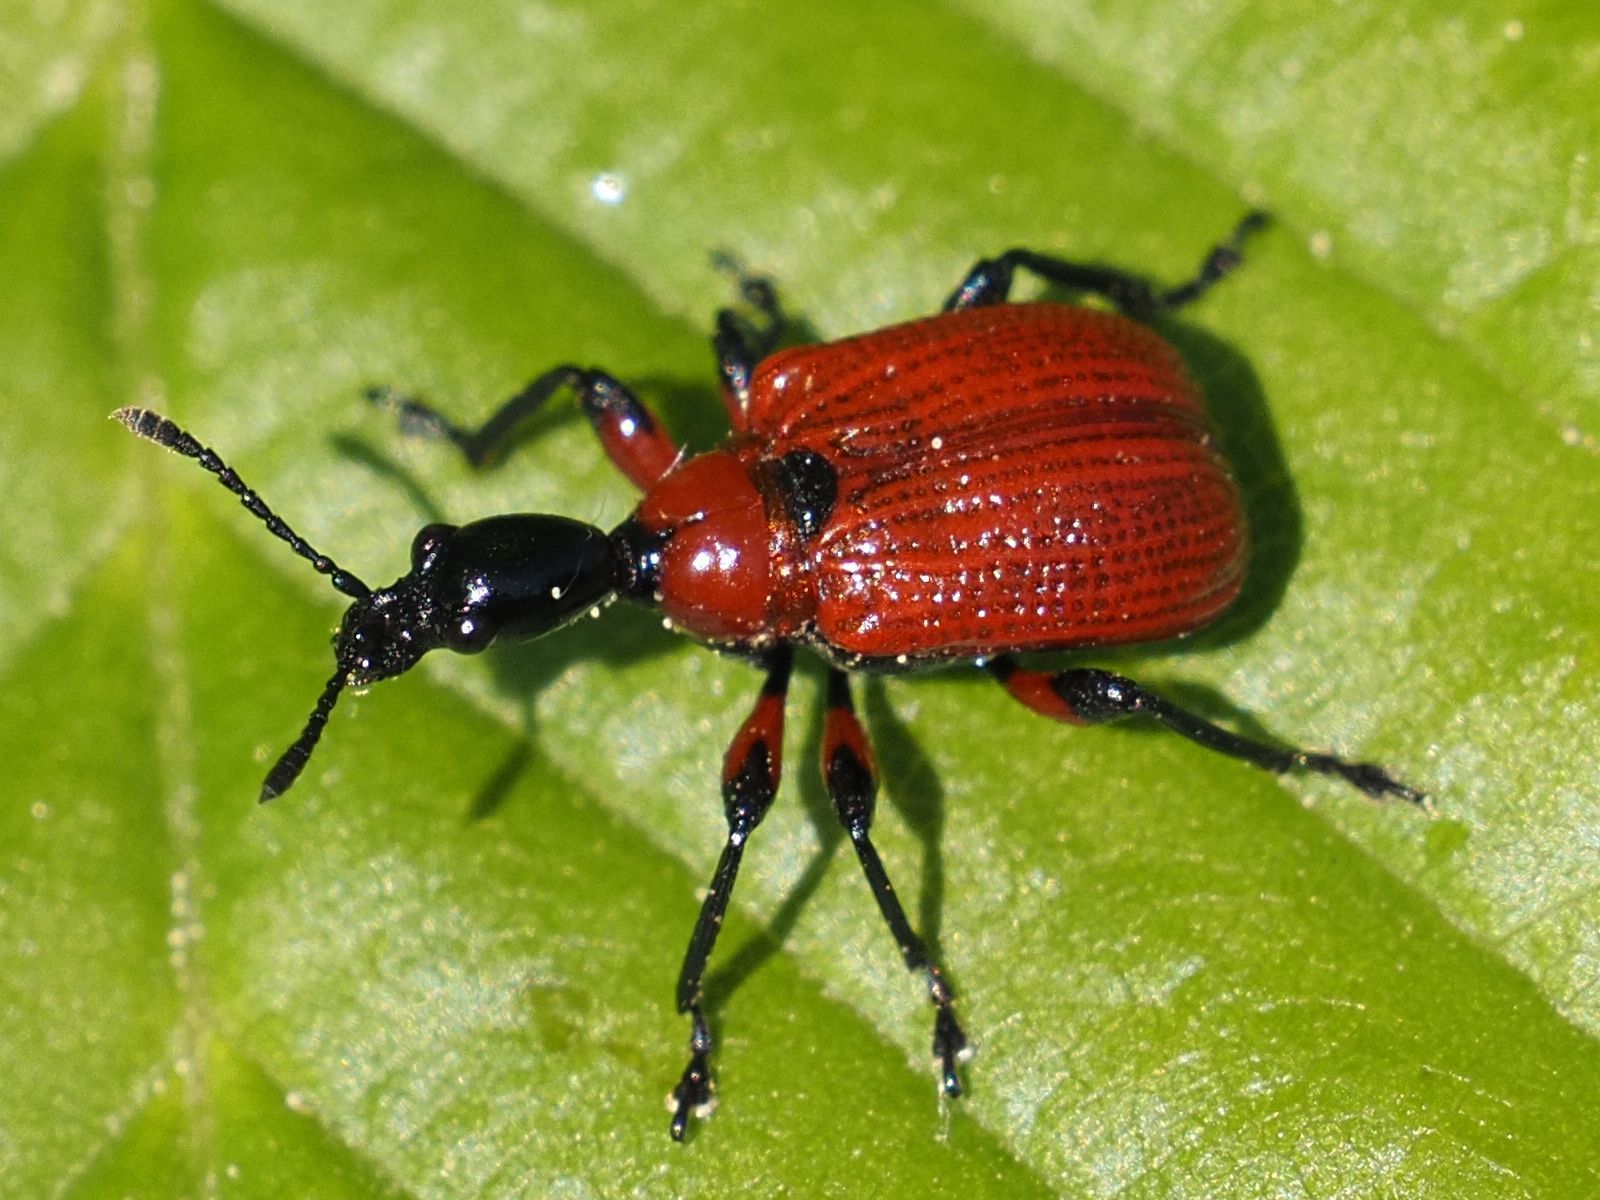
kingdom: Animalia
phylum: Arthropoda
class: Insecta
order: Coleoptera
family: Attelabidae
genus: Apoderus
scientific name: Apoderus coryli
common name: Hazel leaf roller
